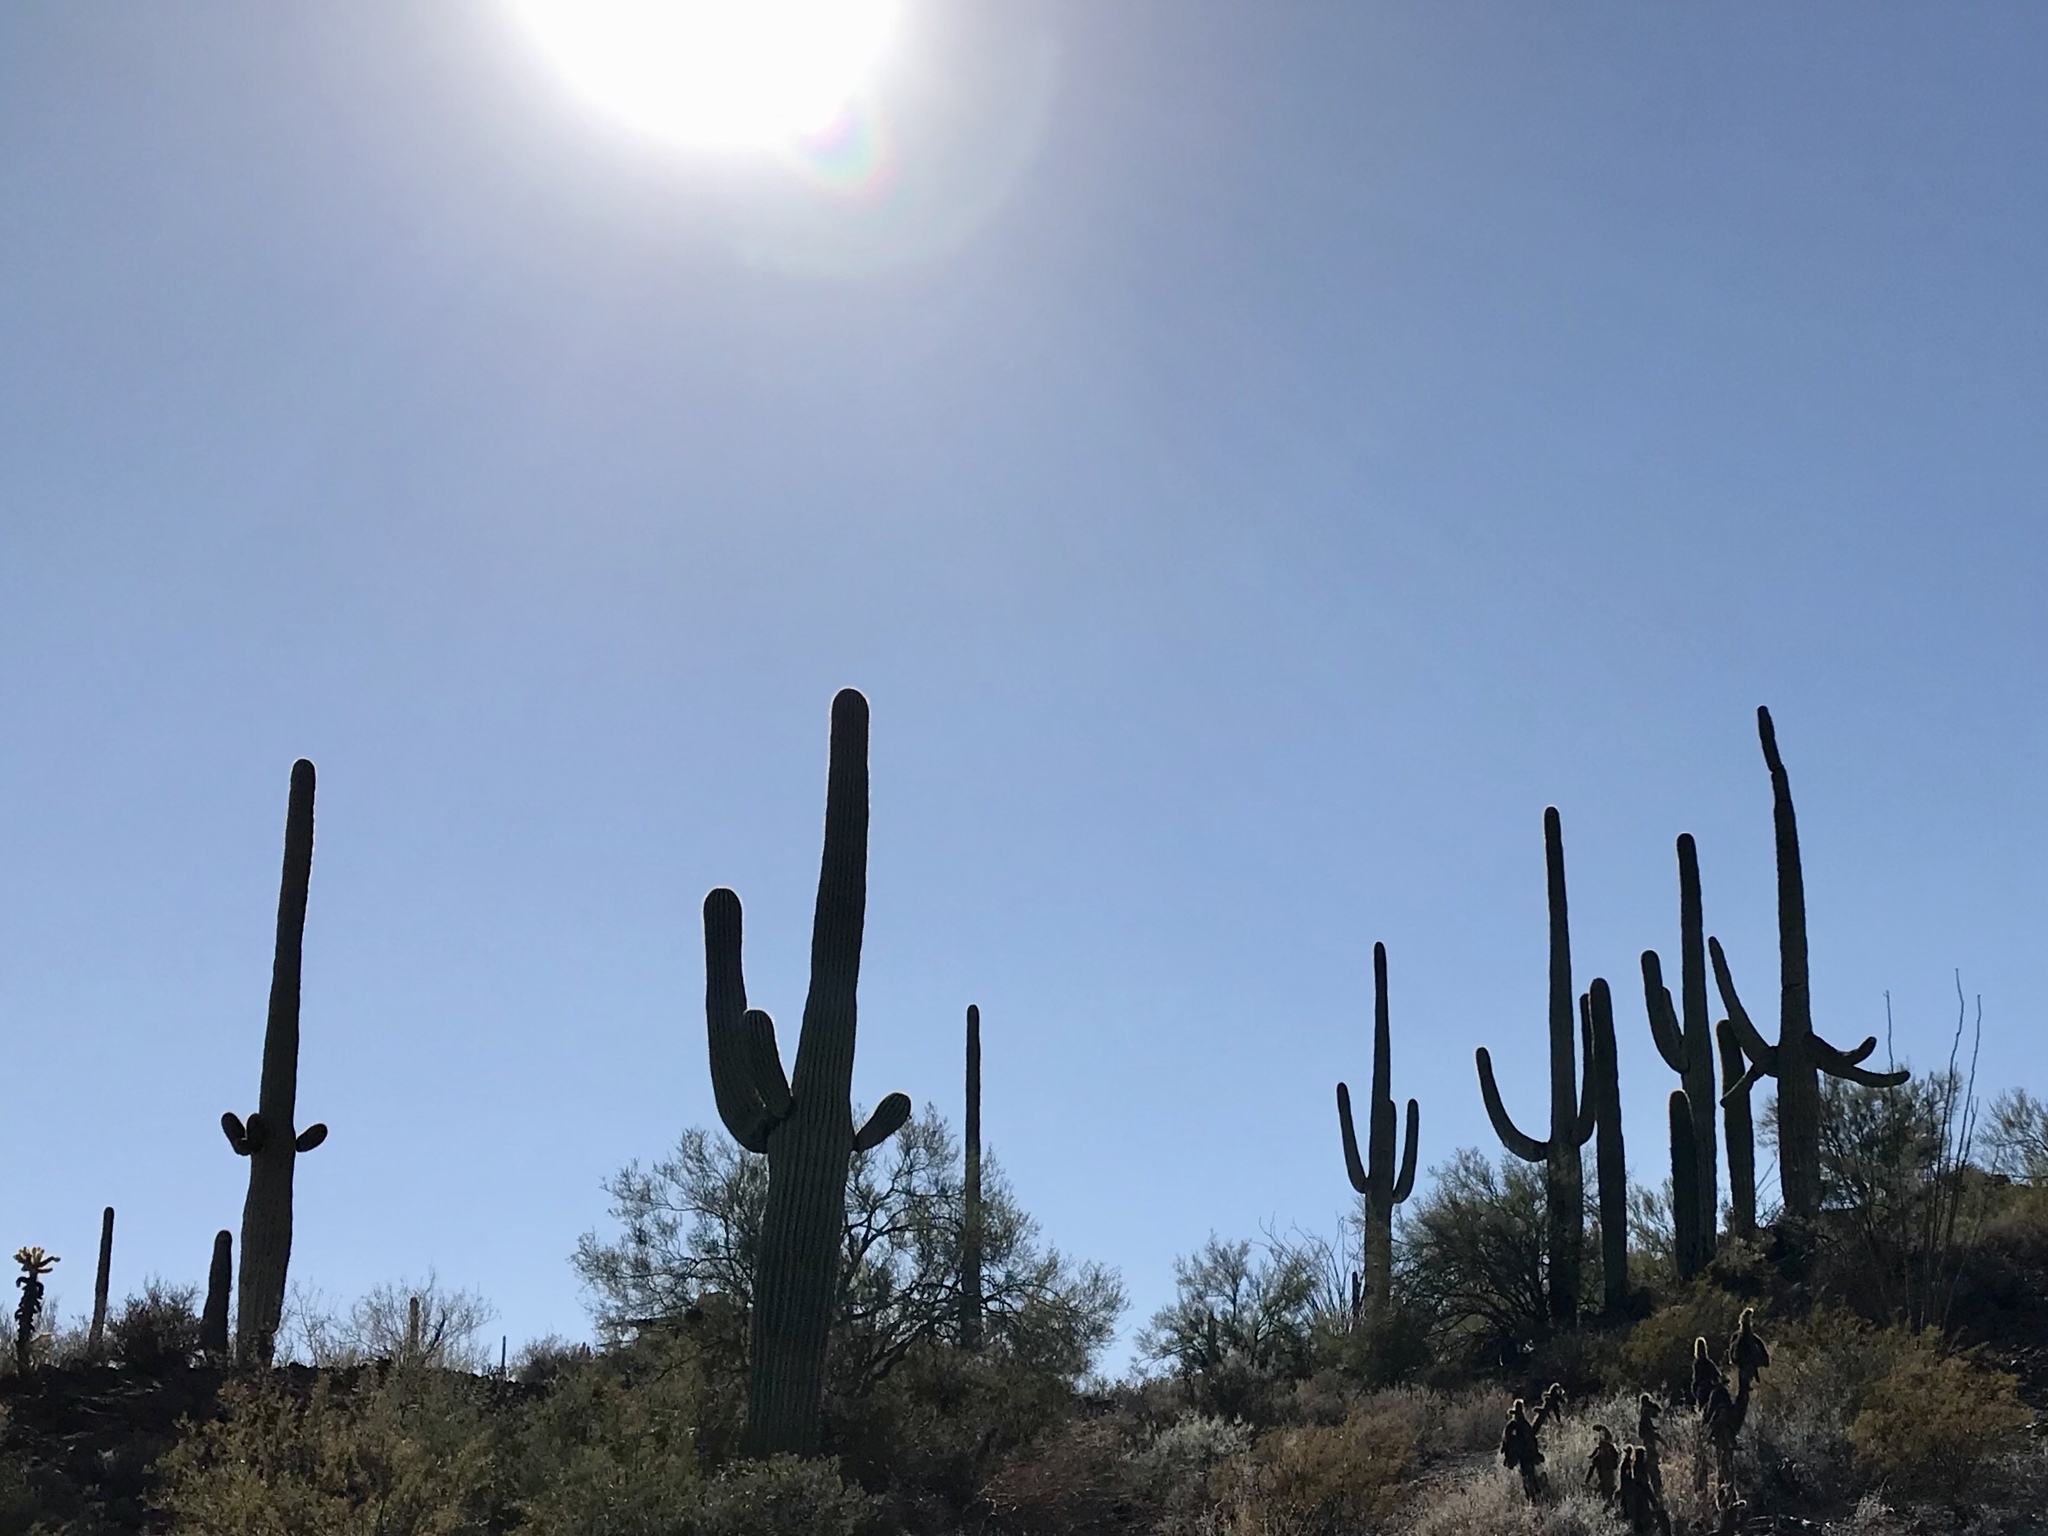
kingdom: Plantae
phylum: Tracheophyta
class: Magnoliopsida
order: Caryophyllales
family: Cactaceae
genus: Carnegiea
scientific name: Carnegiea gigantea
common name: Saguaro
